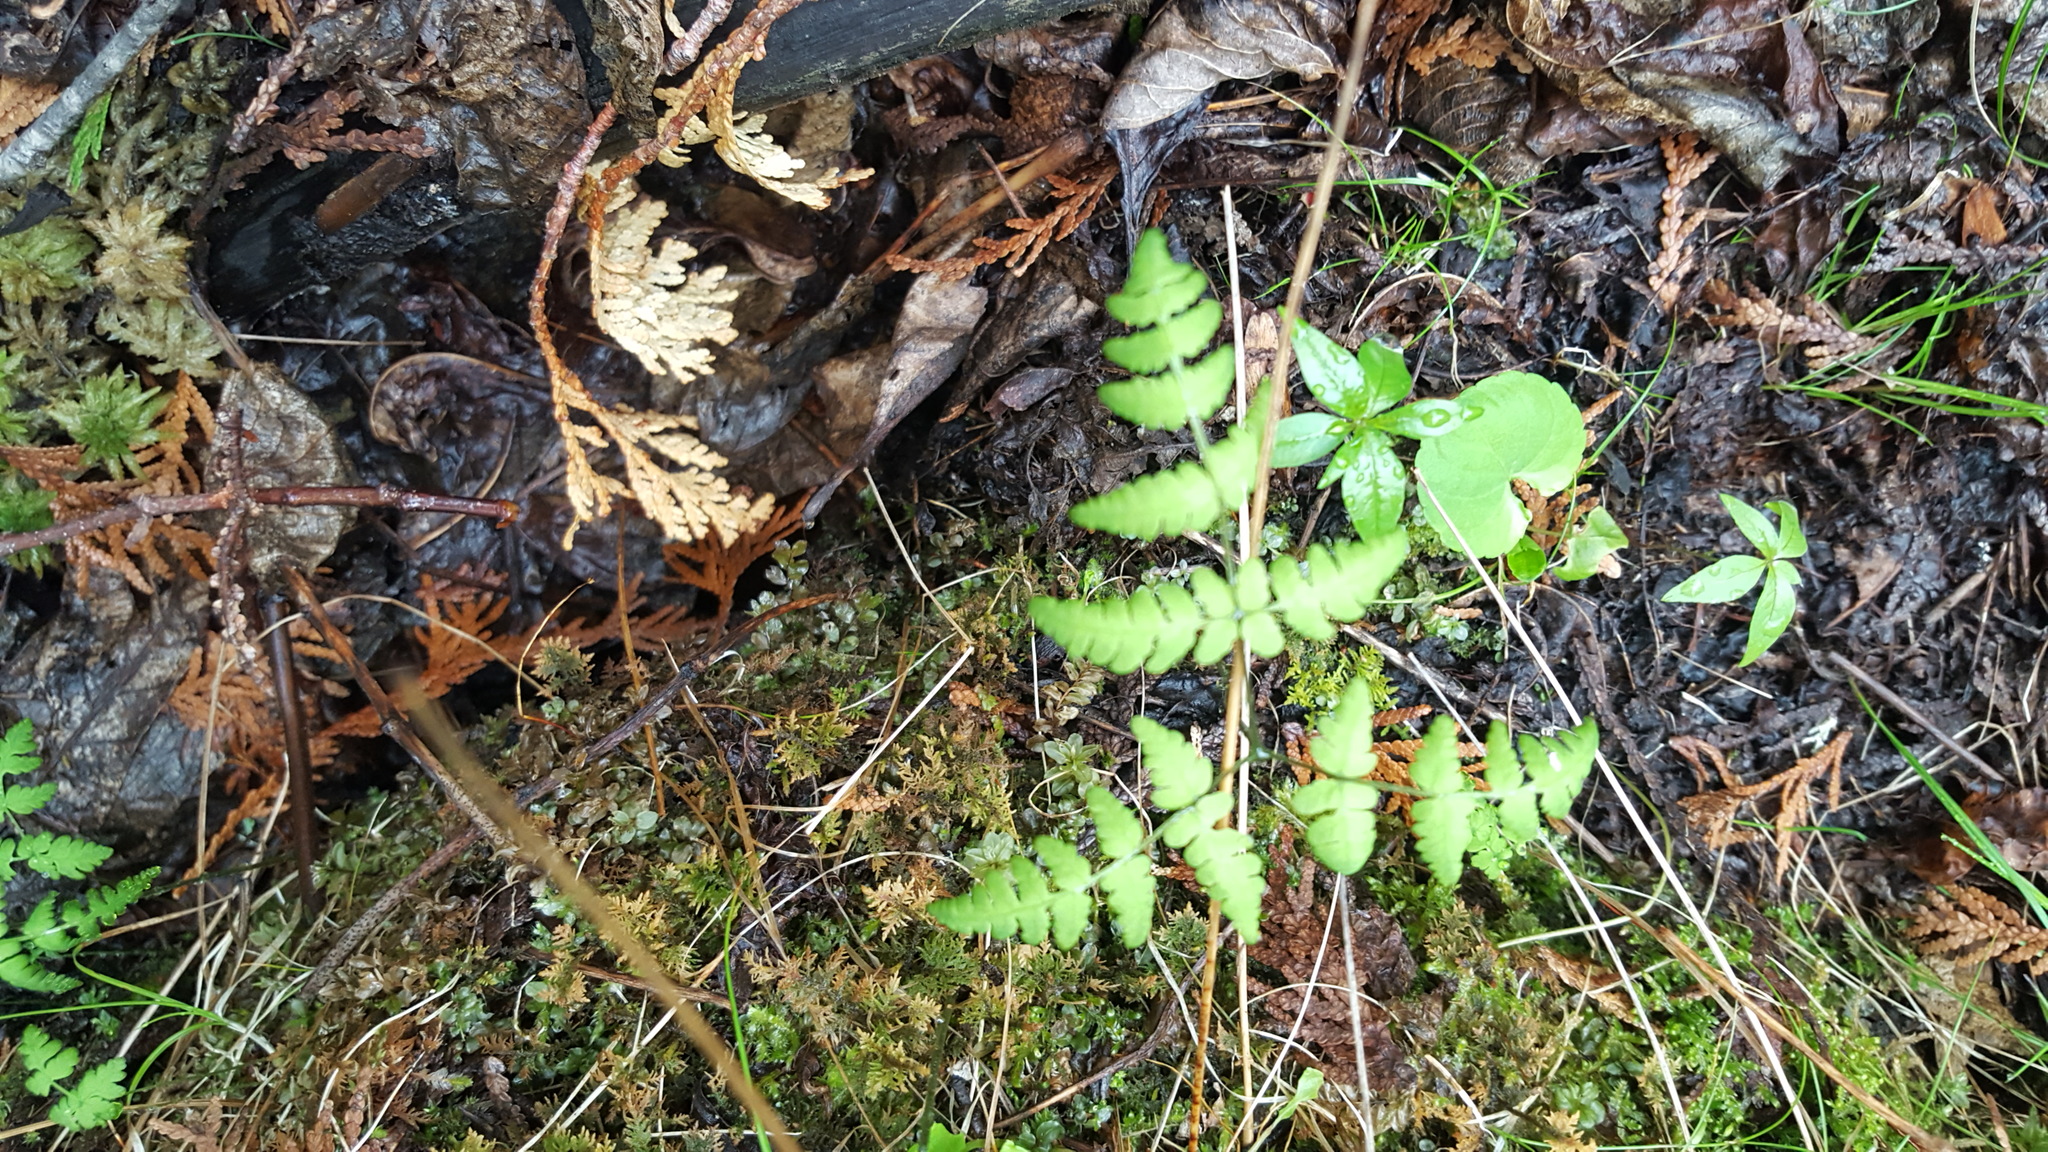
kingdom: Plantae
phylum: Tracheophyta
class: Polypodiopsida
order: Polypodiales
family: Cystopteridaceae
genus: Gymnocarpium
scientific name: Gymnocarpium dryopteris
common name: Oak fern
